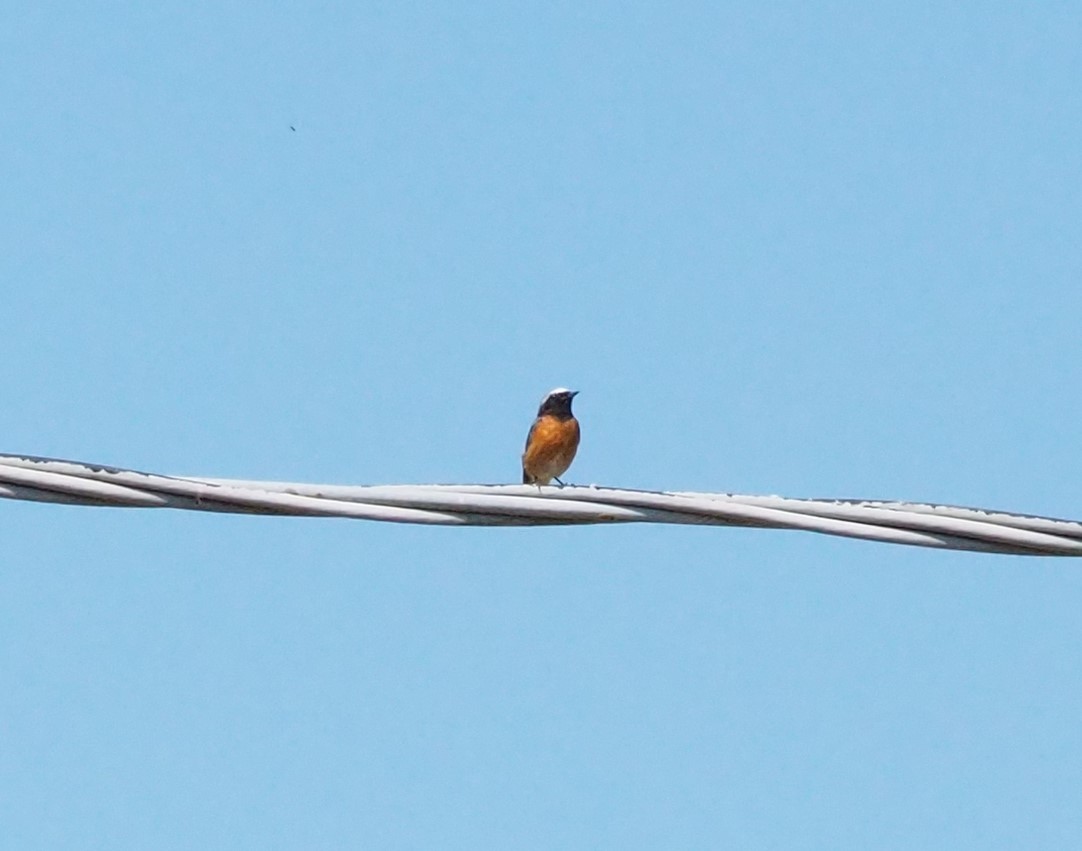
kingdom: Animalia
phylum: Chordata
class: Aves
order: Passeriformes
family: Muscicapidae
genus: Phoenicurus
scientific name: Phoenicurus phoenicurus
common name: Common redstart
